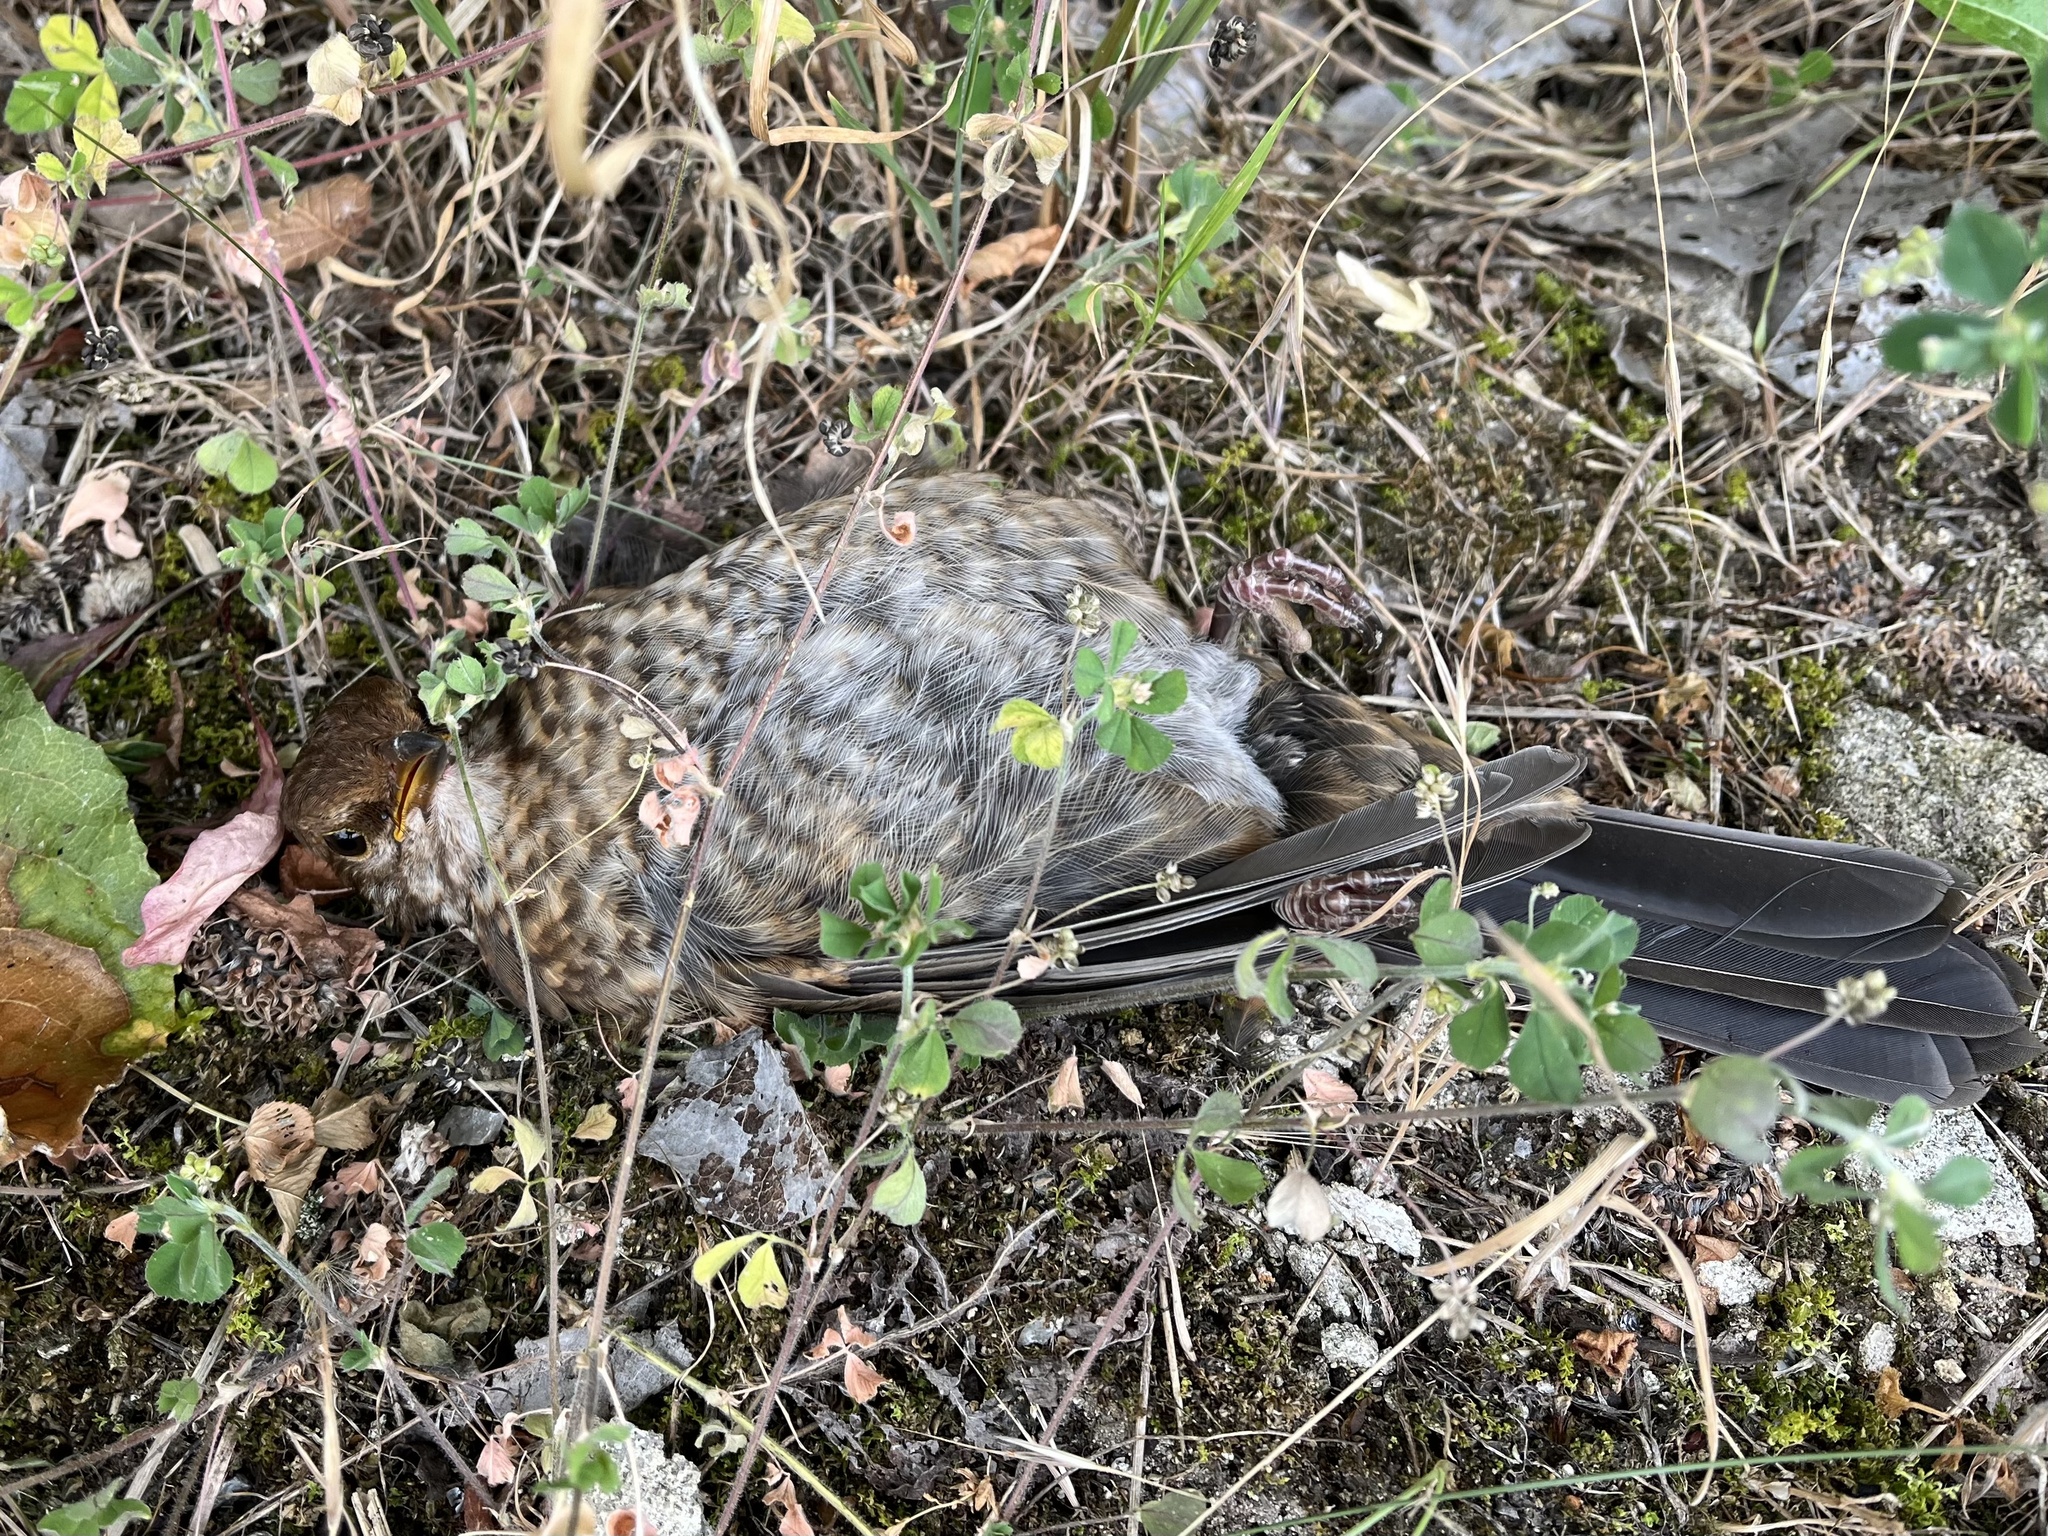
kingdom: Animalia
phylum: Chordata
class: Aves
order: Passeriformes
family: Turdidae
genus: Turdus
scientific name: Turdus merula
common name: Common blackbird
